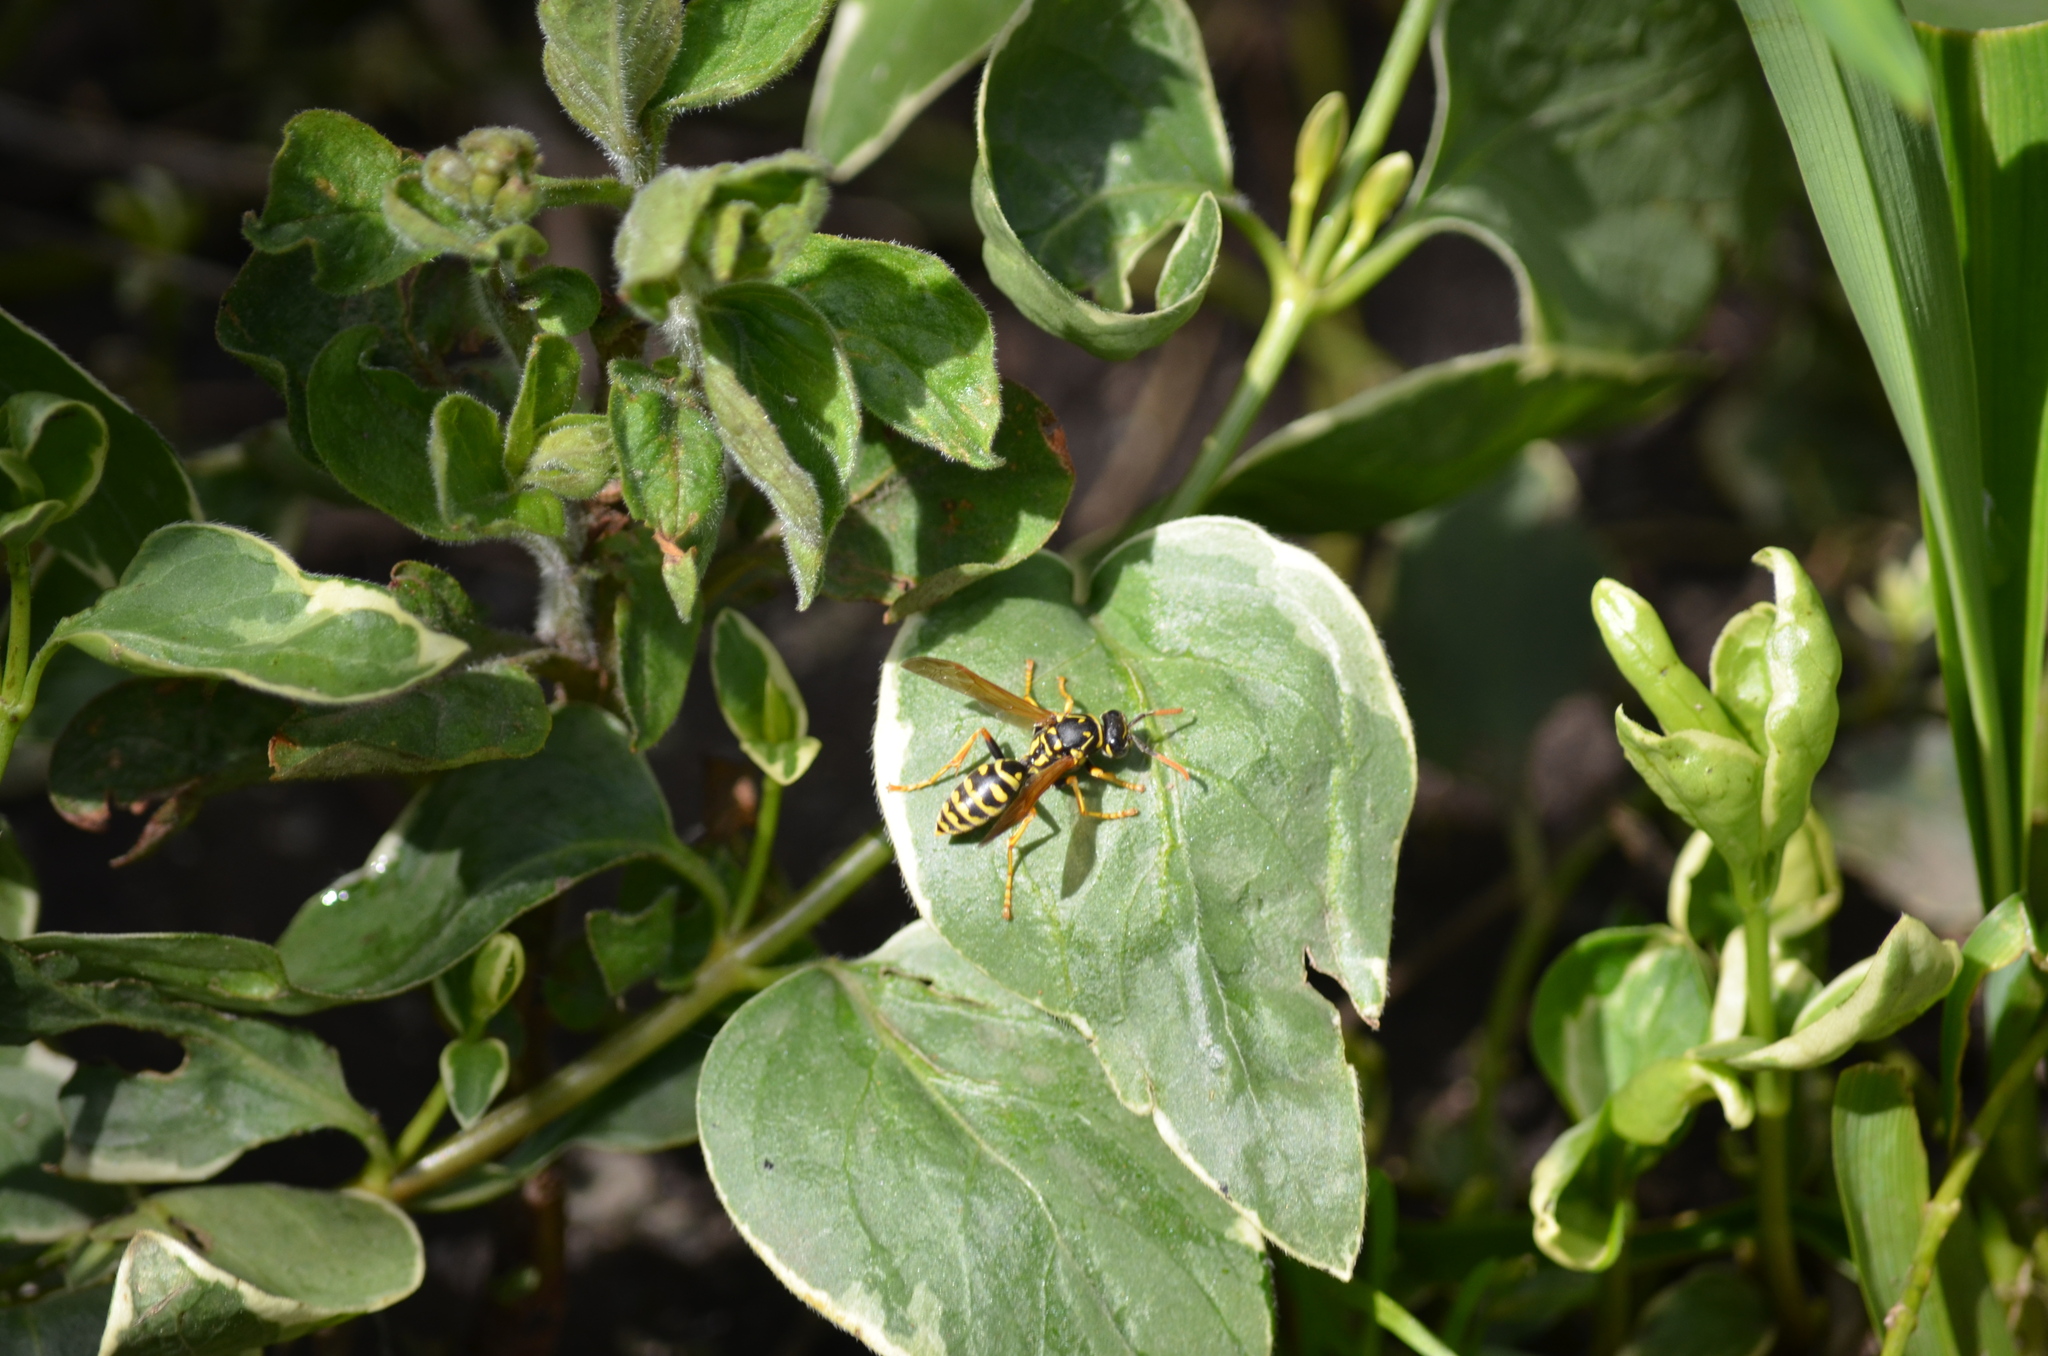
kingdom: Animalia
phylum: Arthropoda
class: Insecta
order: Hymenoptera
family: Eumenidae
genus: Polistes
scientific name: Polistes dominula
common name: Paper wasp
